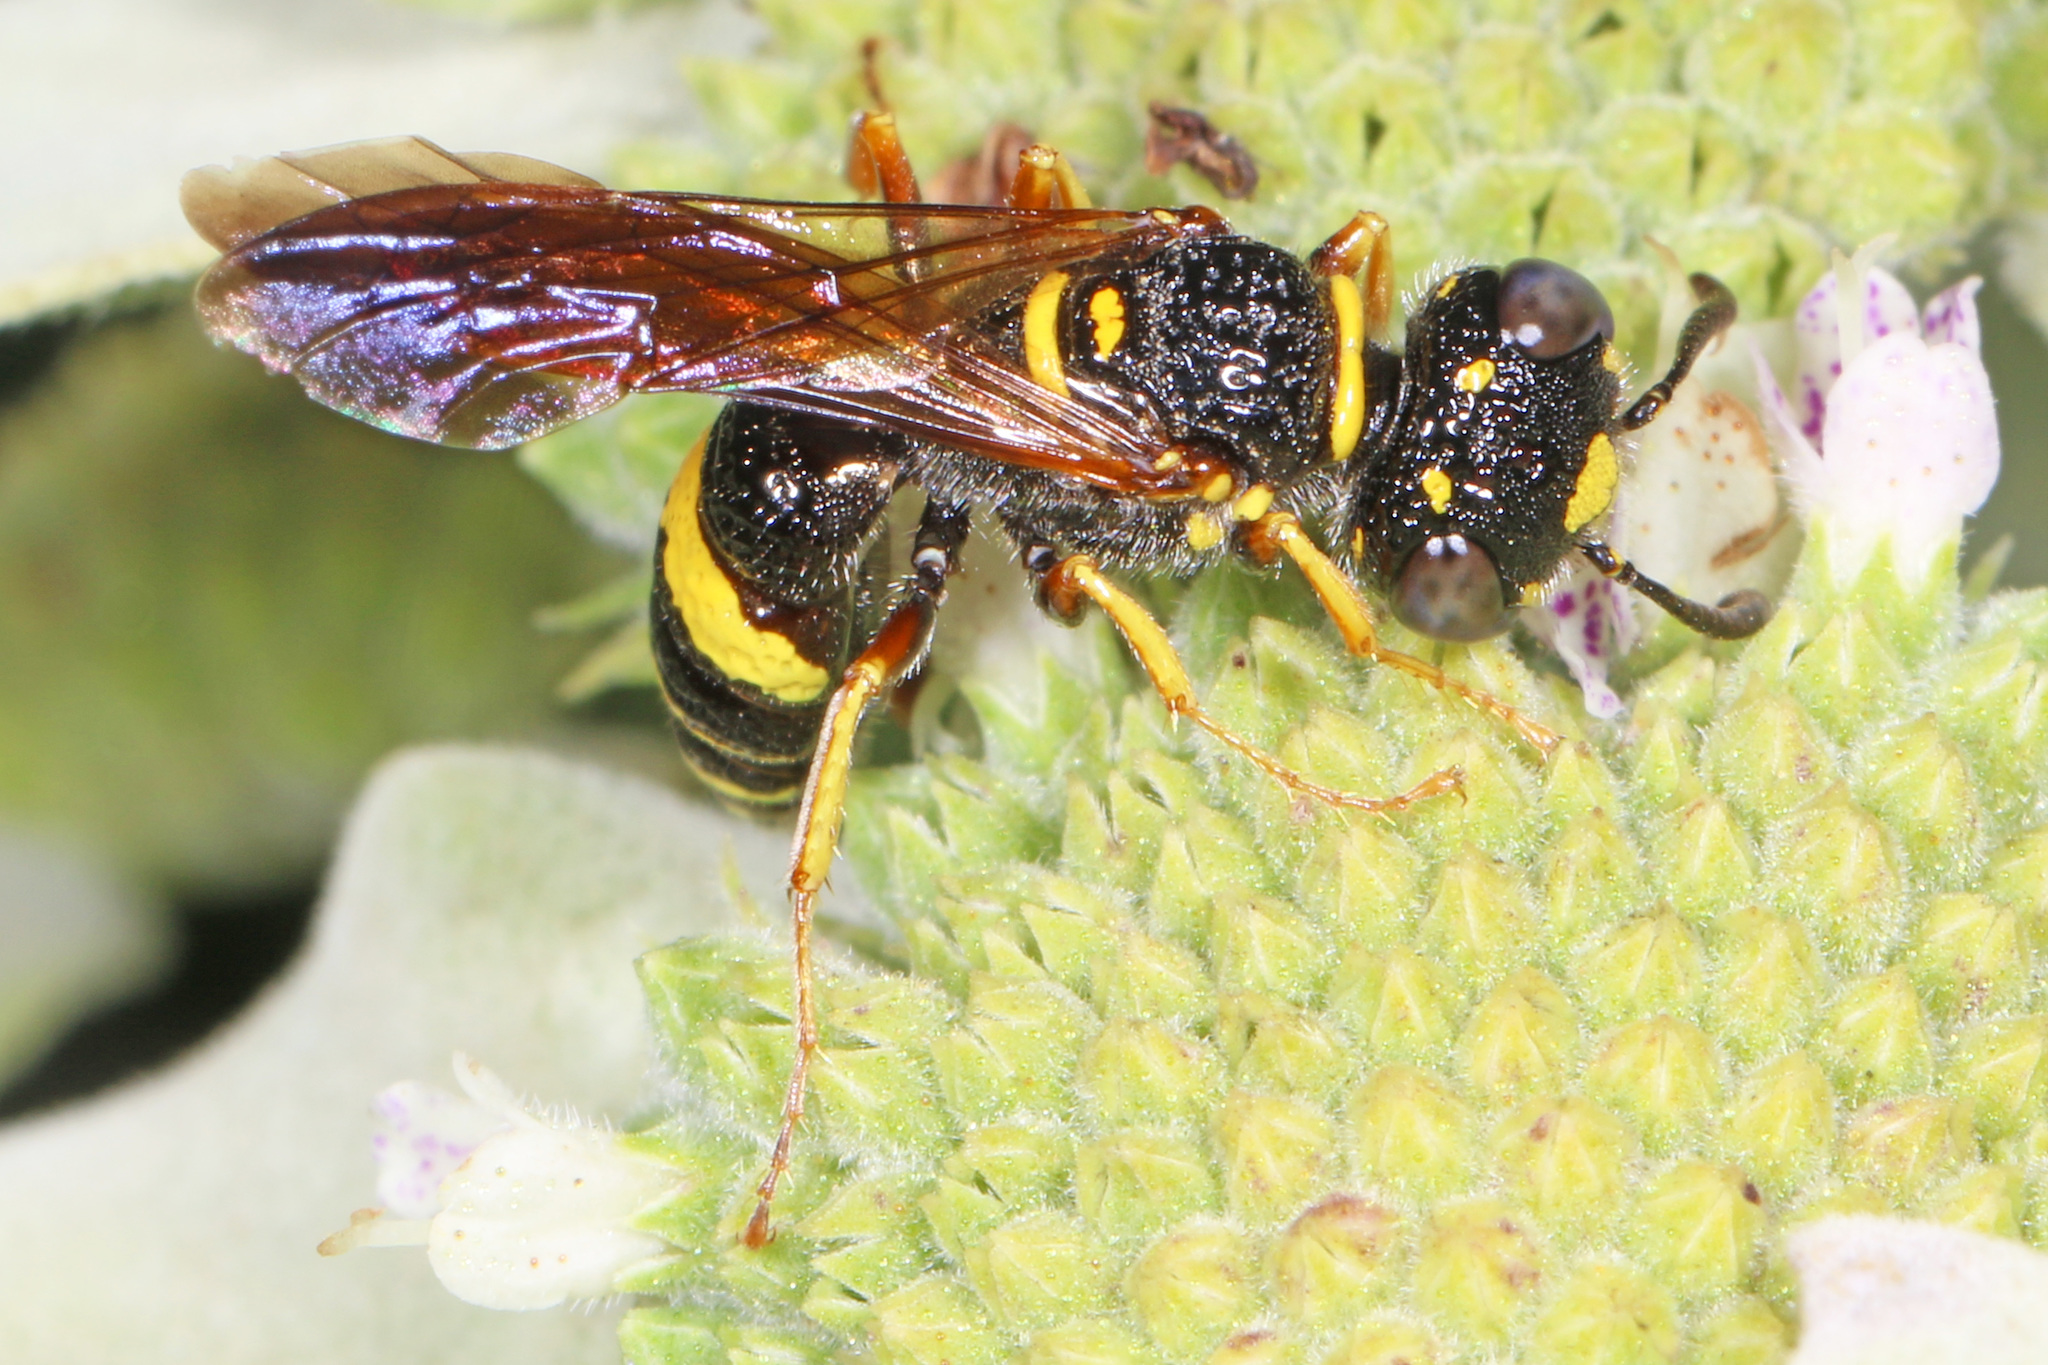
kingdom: Animalia
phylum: Arthropoda
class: Insecta
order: Hymenoptera
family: Crabronidae
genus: Philanthus
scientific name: Philanthus gibbosus
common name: Humped beewolf
